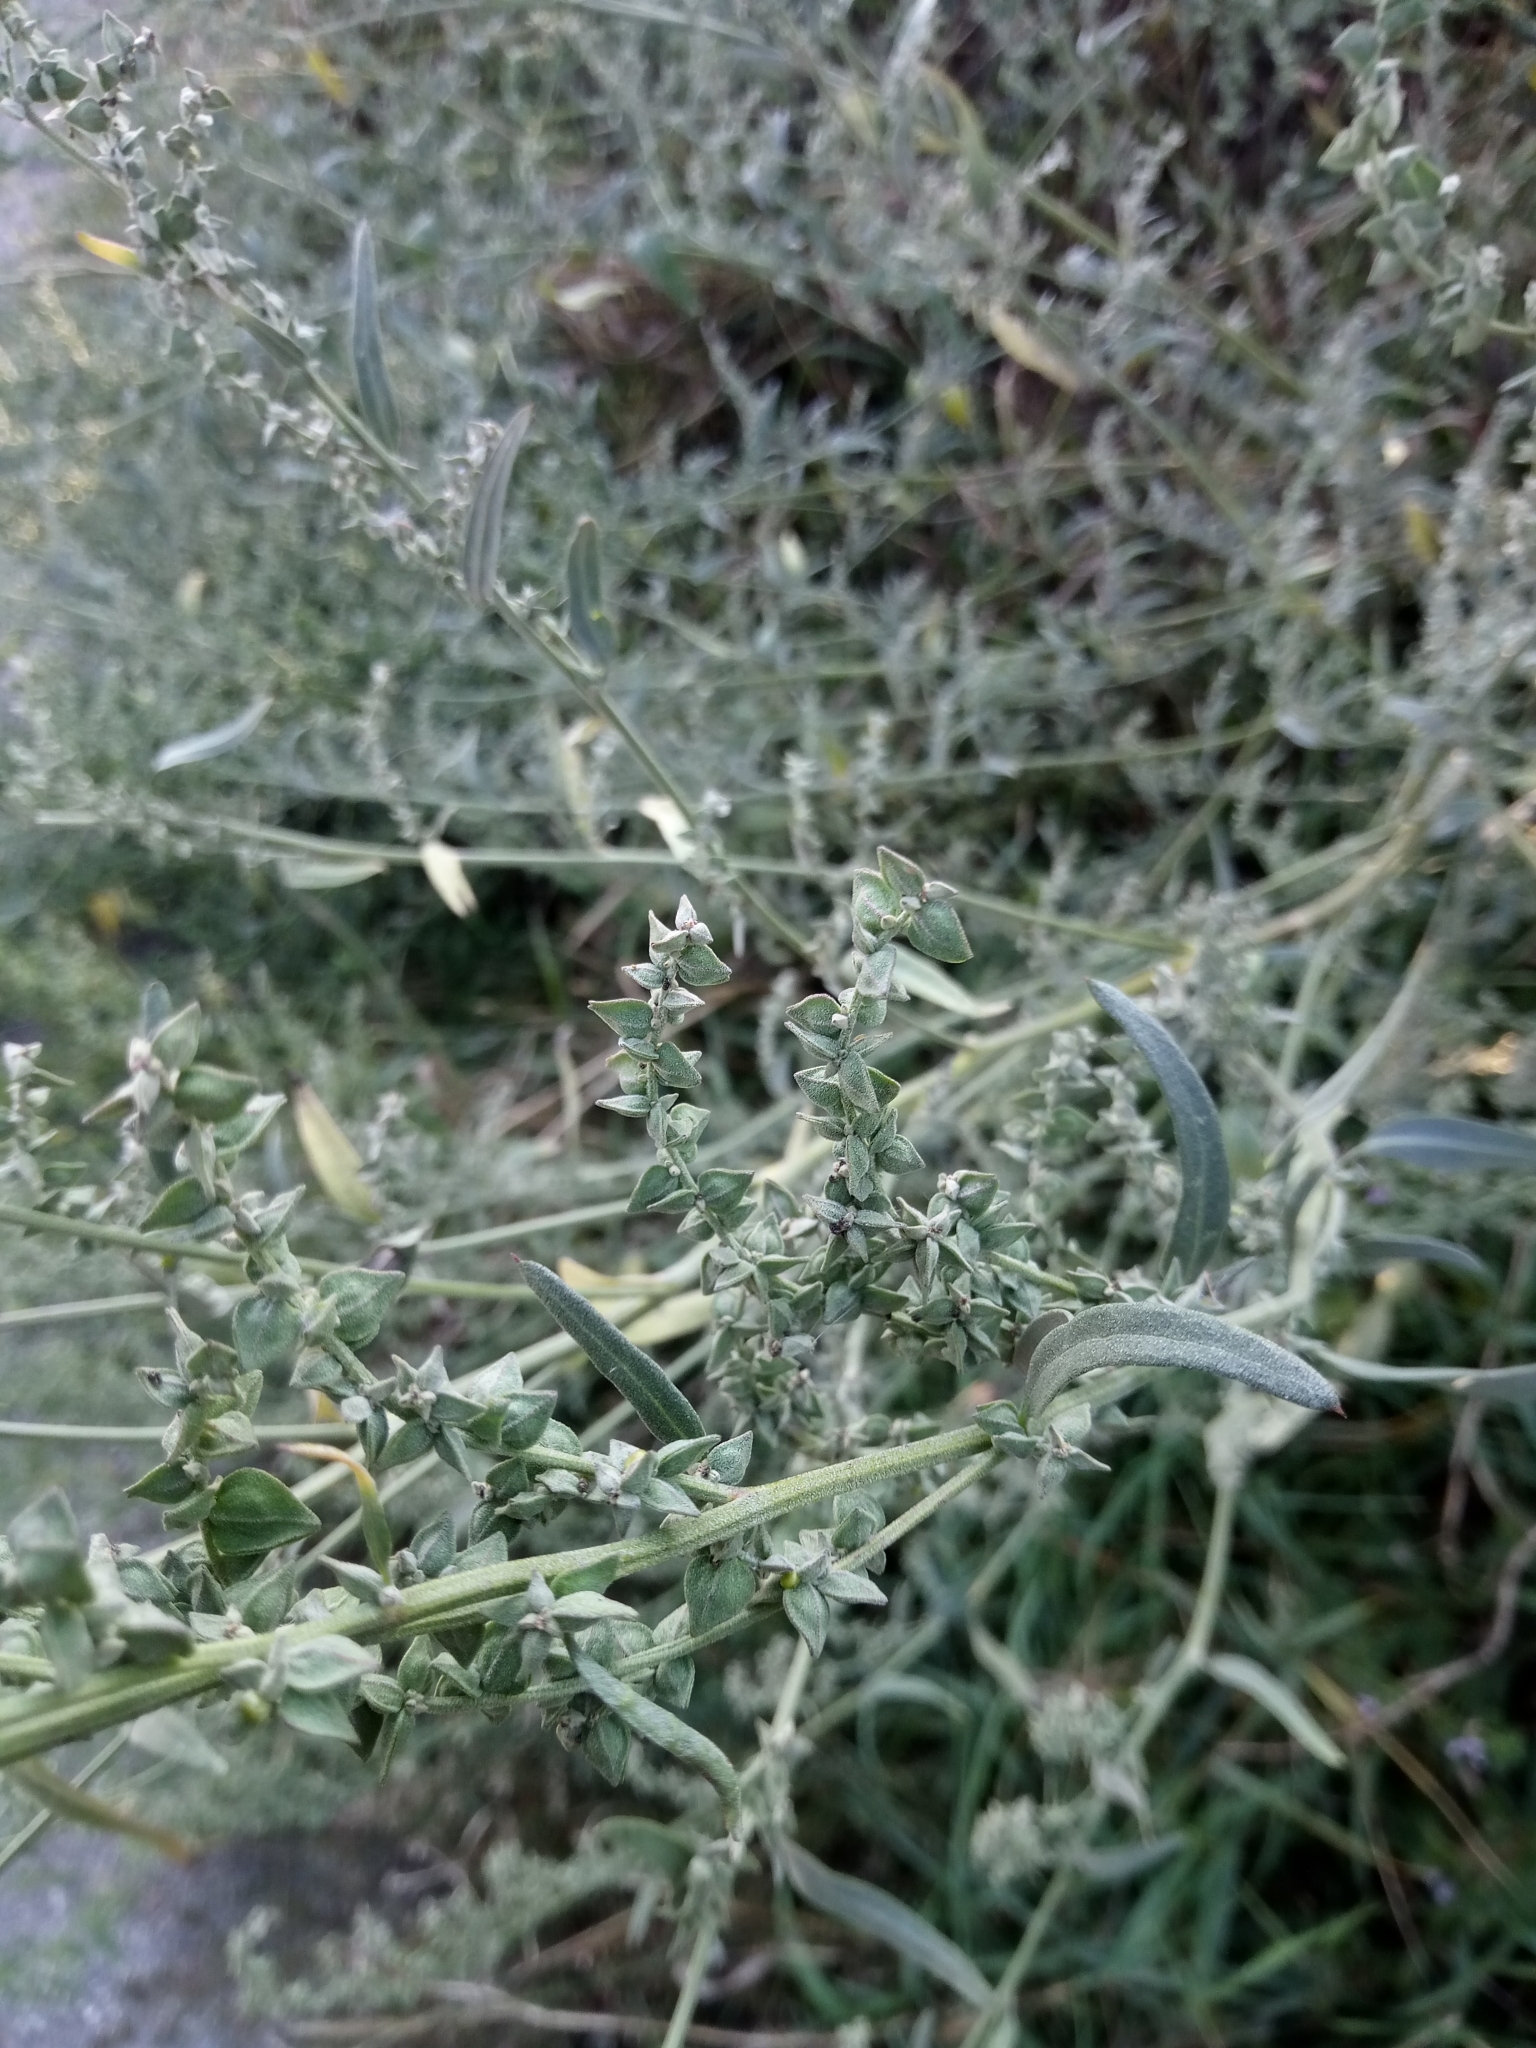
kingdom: Plantae
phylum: Tracheophyta
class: Magnoliopsida
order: Caryophyllales
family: Amaranthaceae
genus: Atriplex
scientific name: Atriplex oblongifolia
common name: Oblongleaf orache
